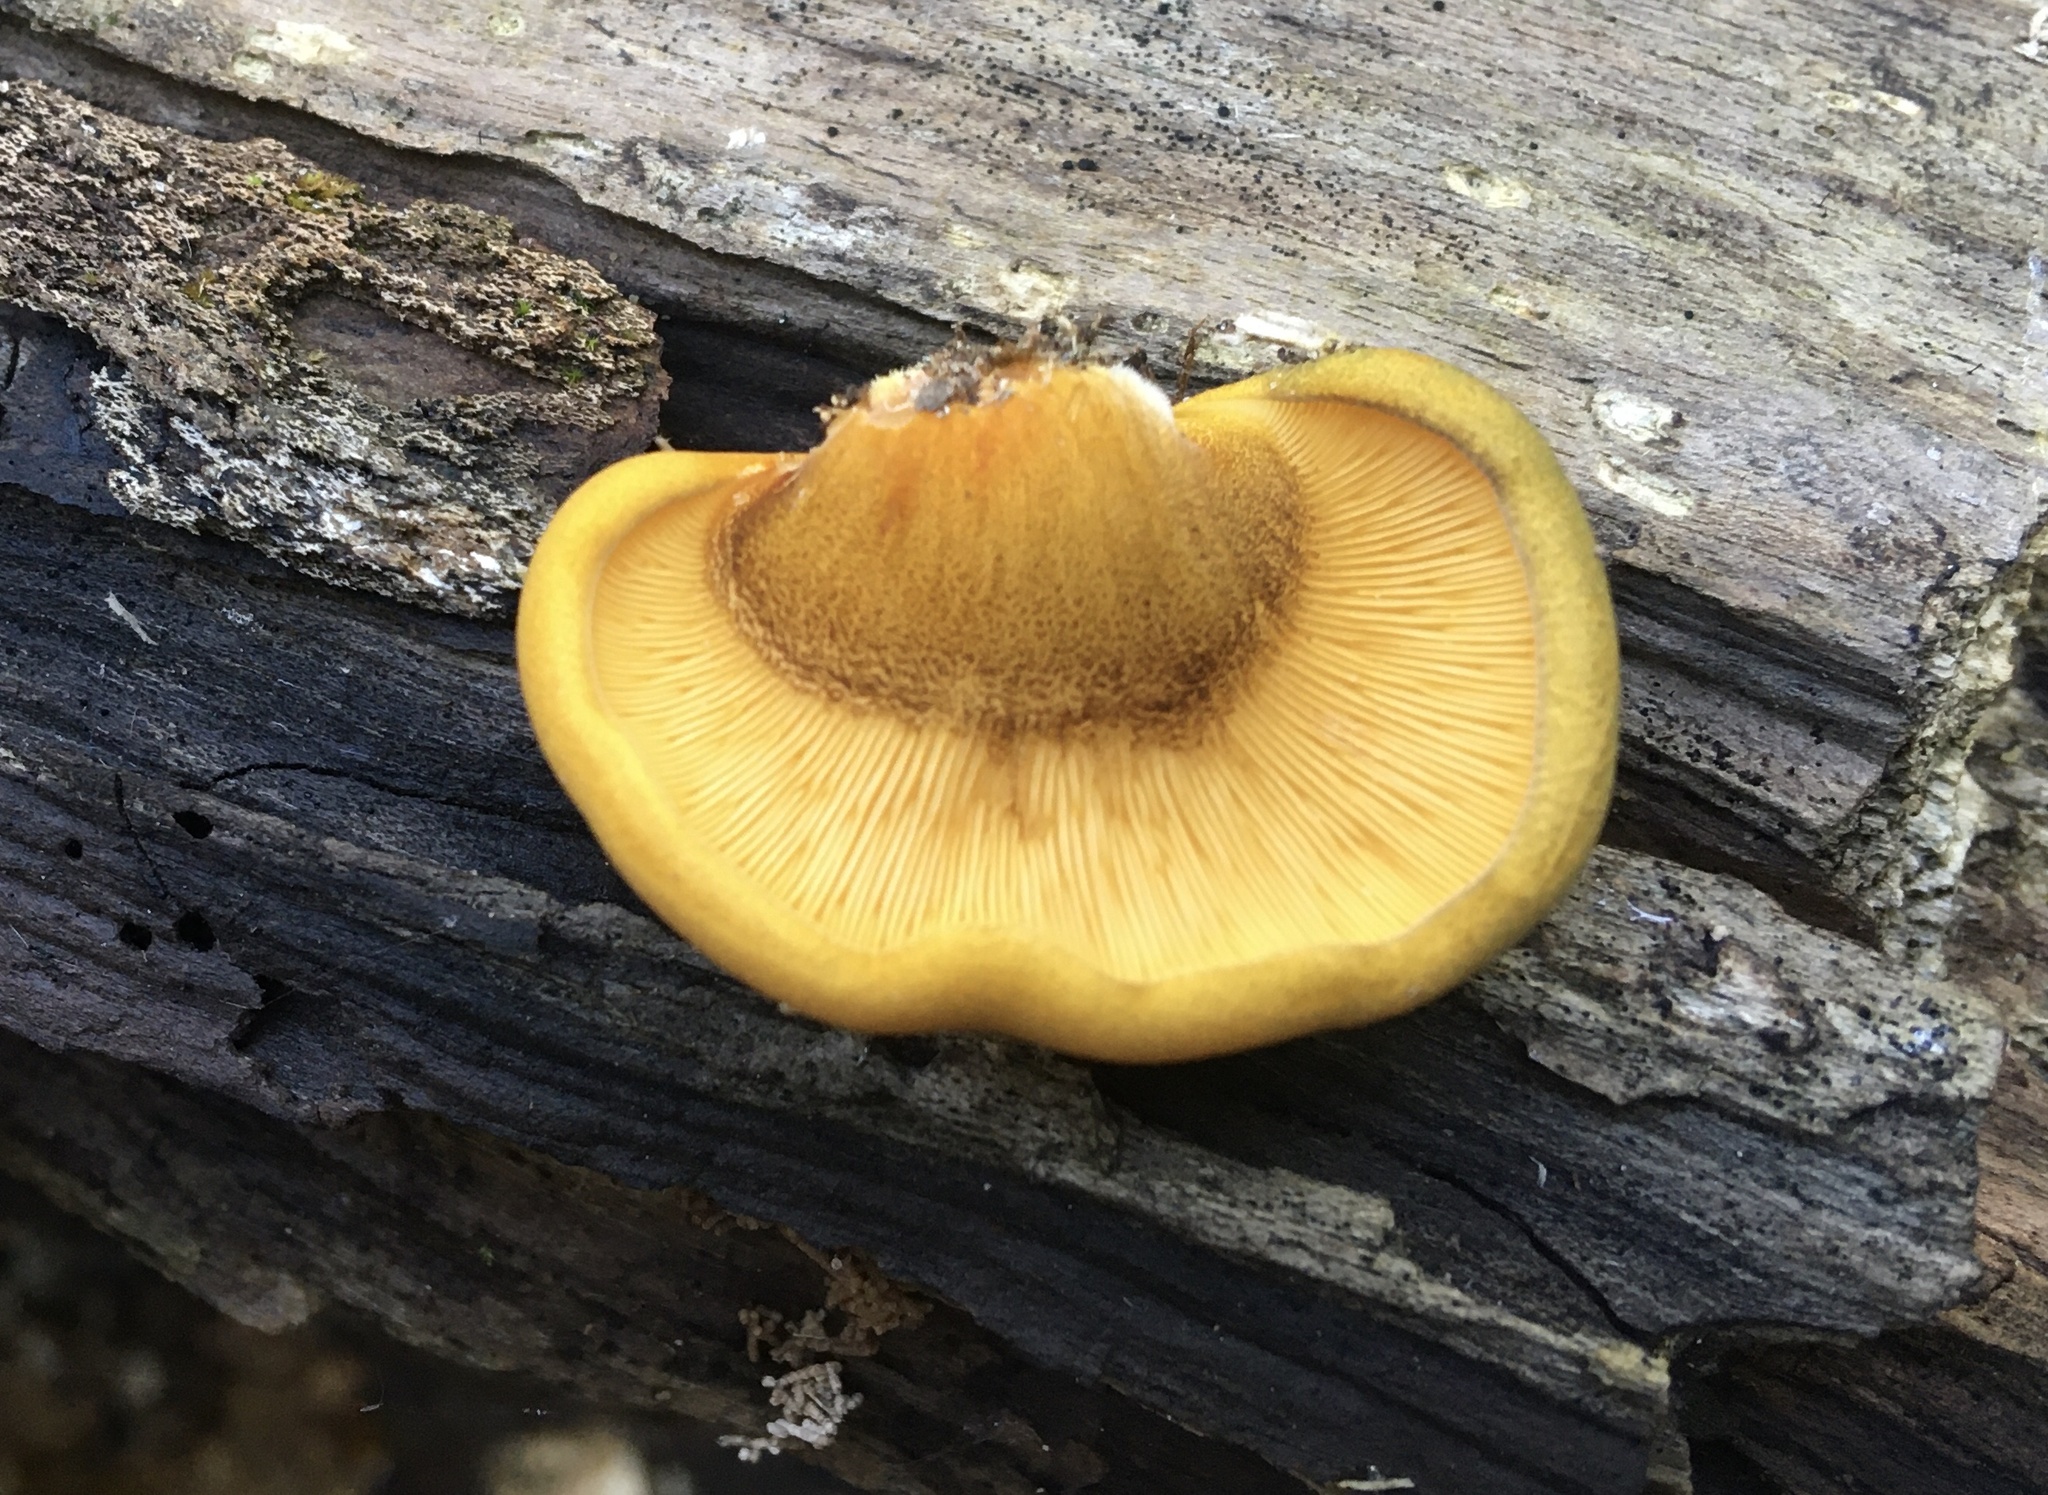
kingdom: Fungi
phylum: Basidiomycota
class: Agaricomycetes
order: Agaricales
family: Sarcomyxaceae
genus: Sarcomyxa
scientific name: Sarcomyxa serotina
